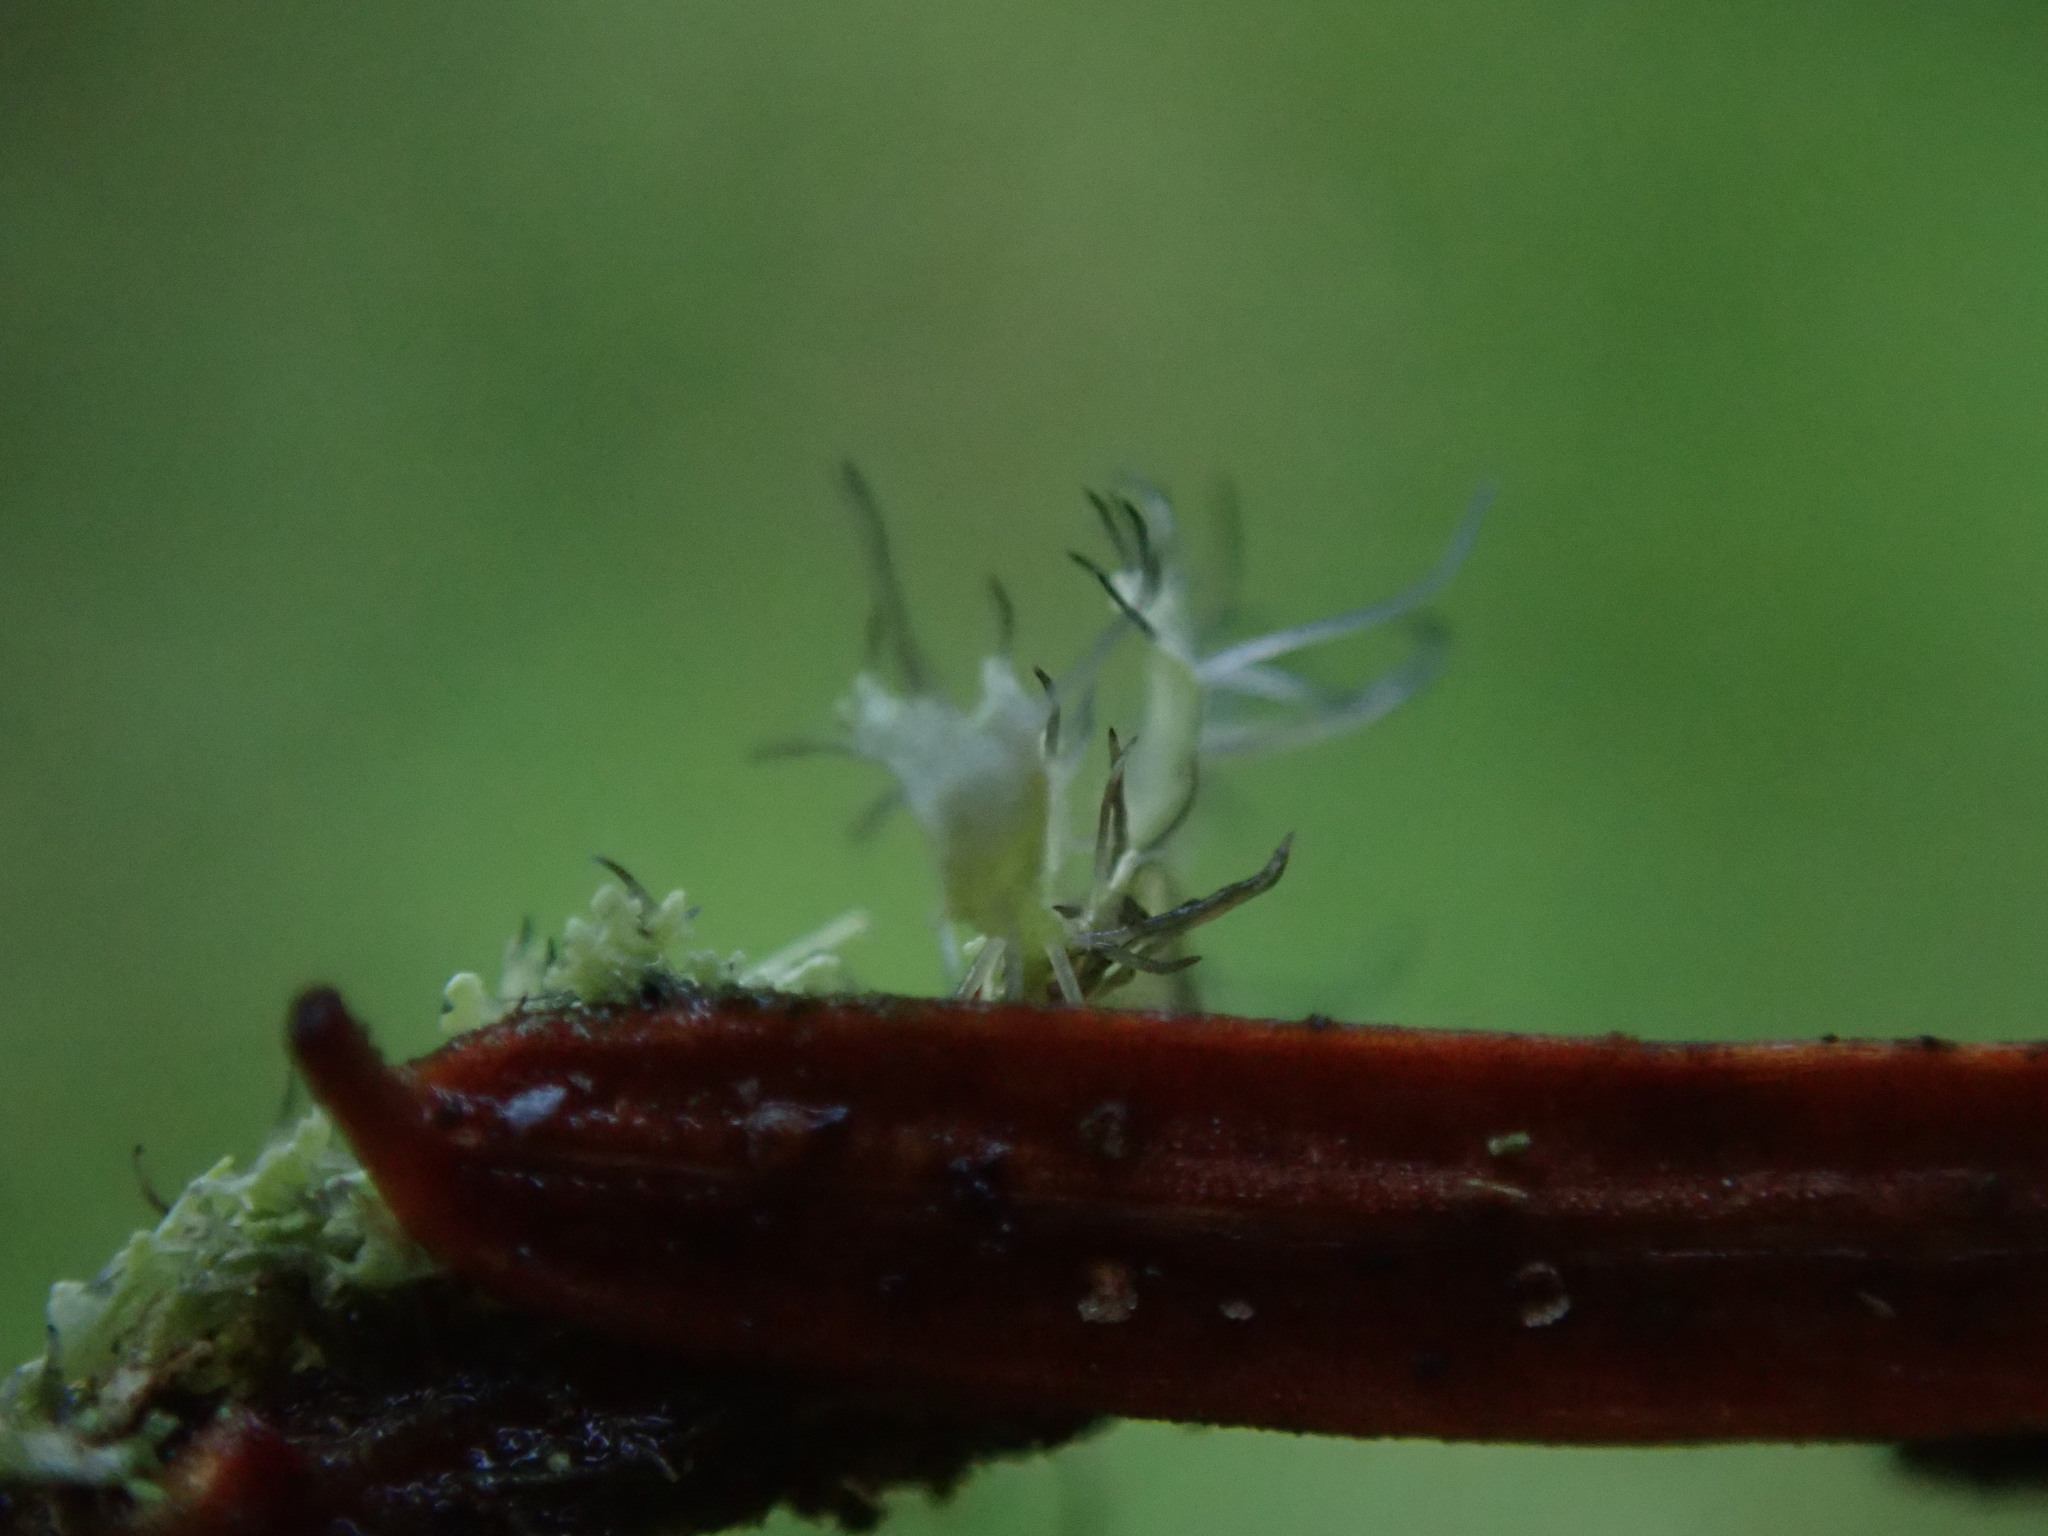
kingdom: Fungi
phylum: Ascomycota
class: Lecanoromycetes
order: Caliciales
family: Physciaceae
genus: Physcia
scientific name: Physcia tenella
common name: Fringed rosette lichen
